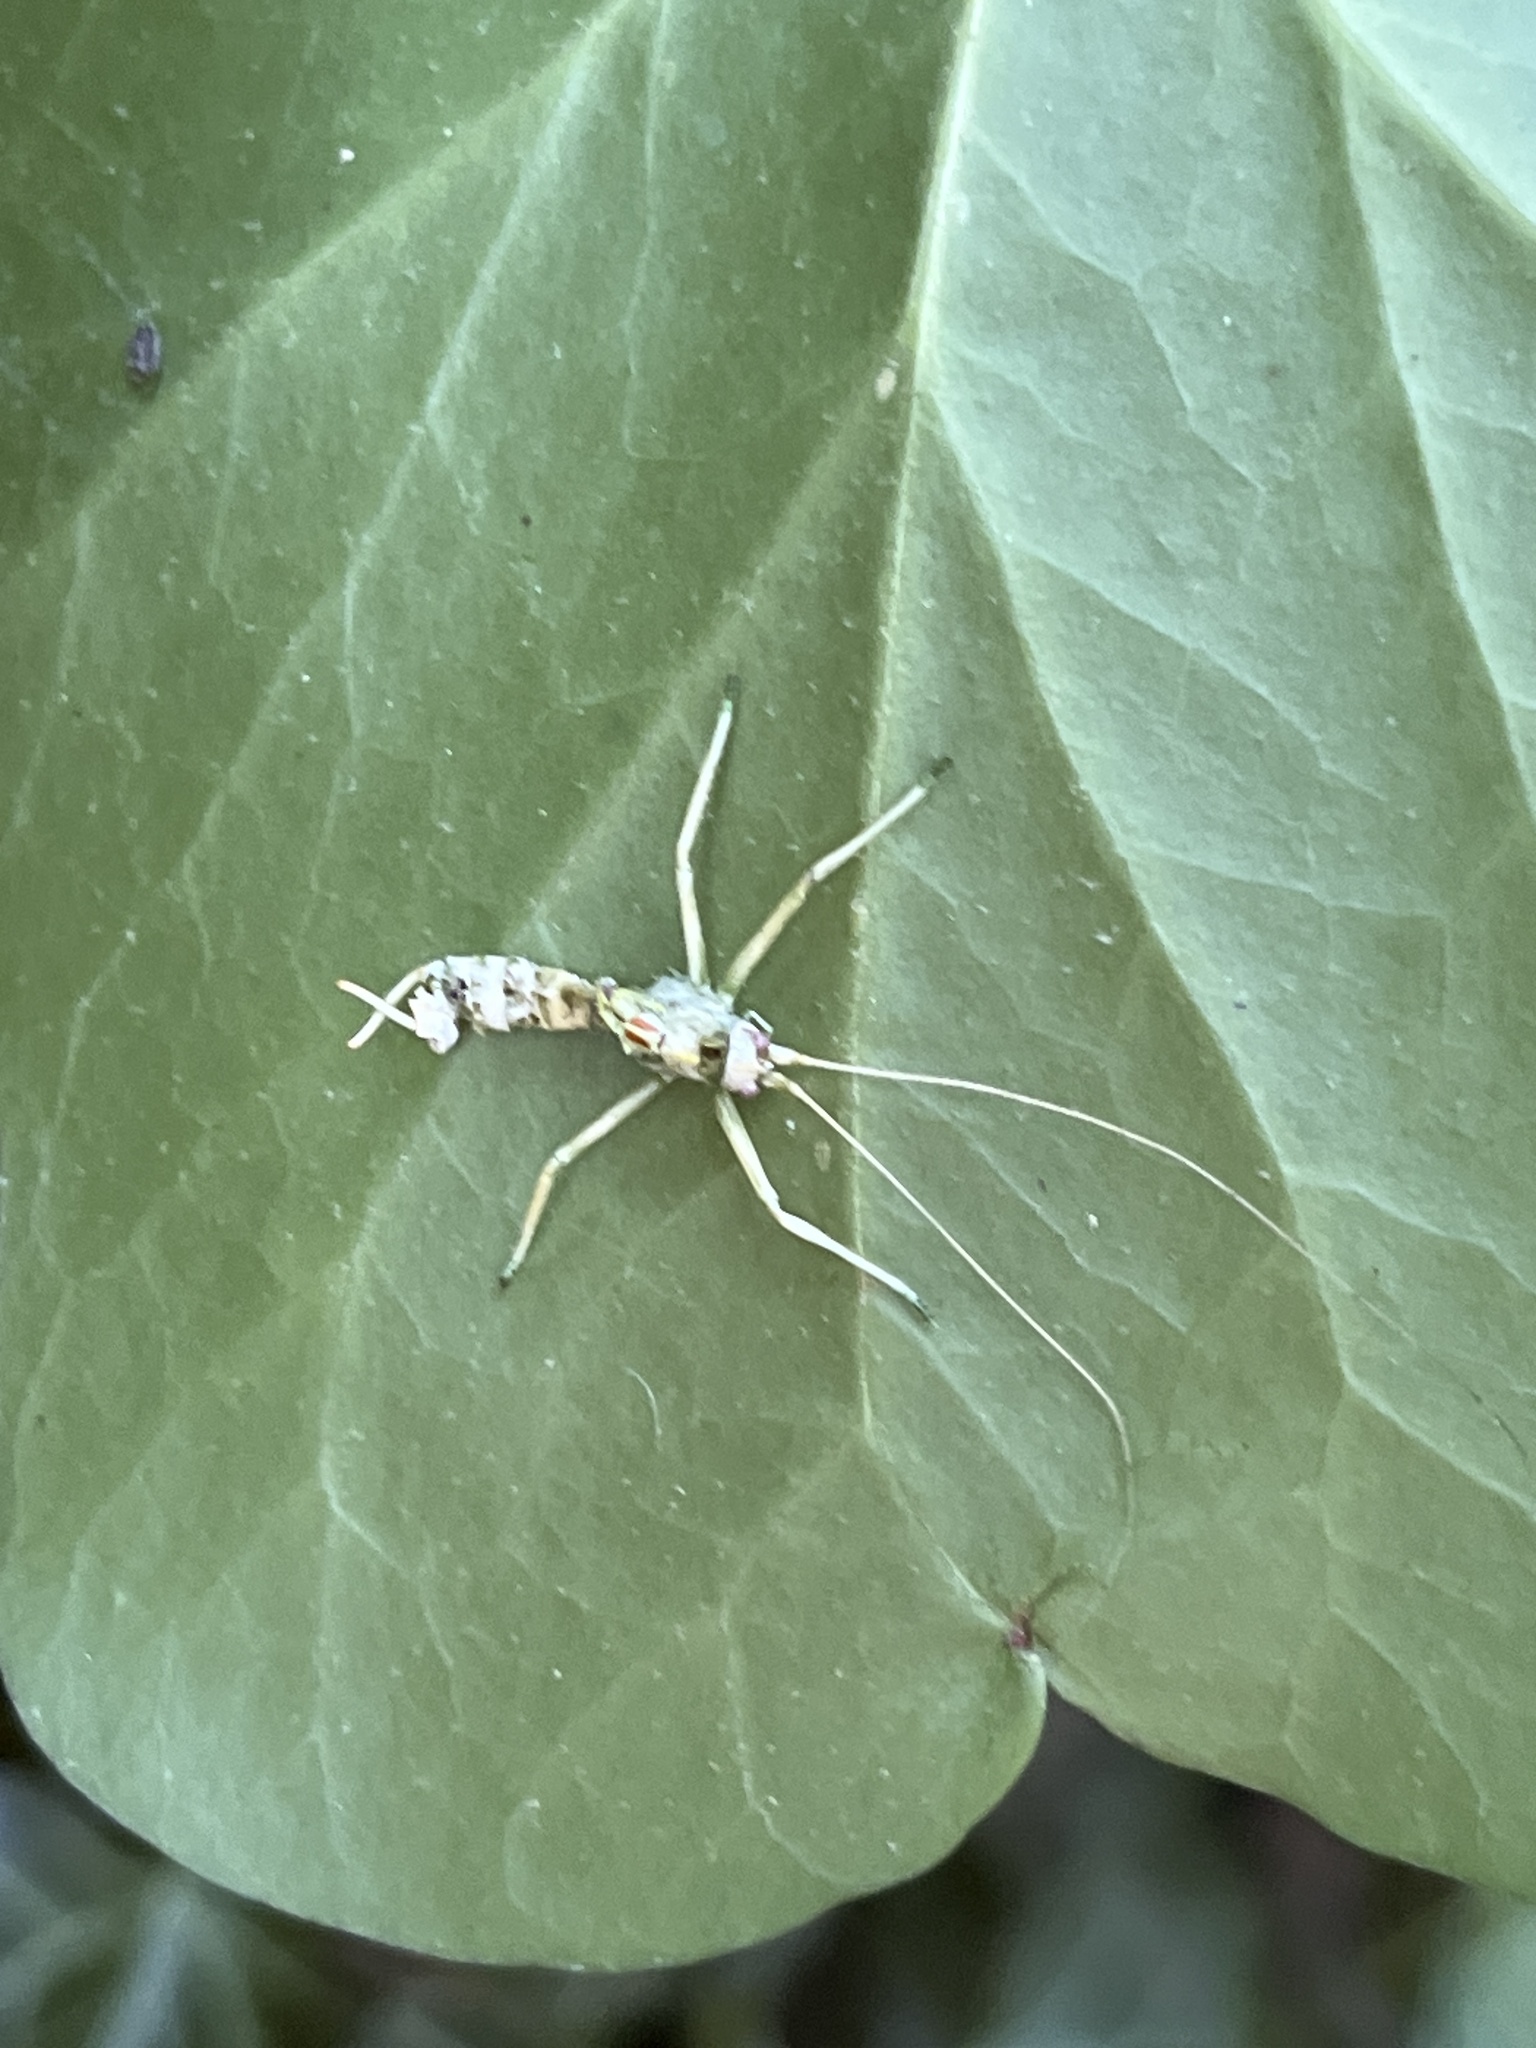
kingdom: Animalia
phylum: Arthropoda
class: Insecta
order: Orthoptera
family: Tettigoniidae
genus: Meconema
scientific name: Meconema meridionale
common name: Southern oak bush-cricket
